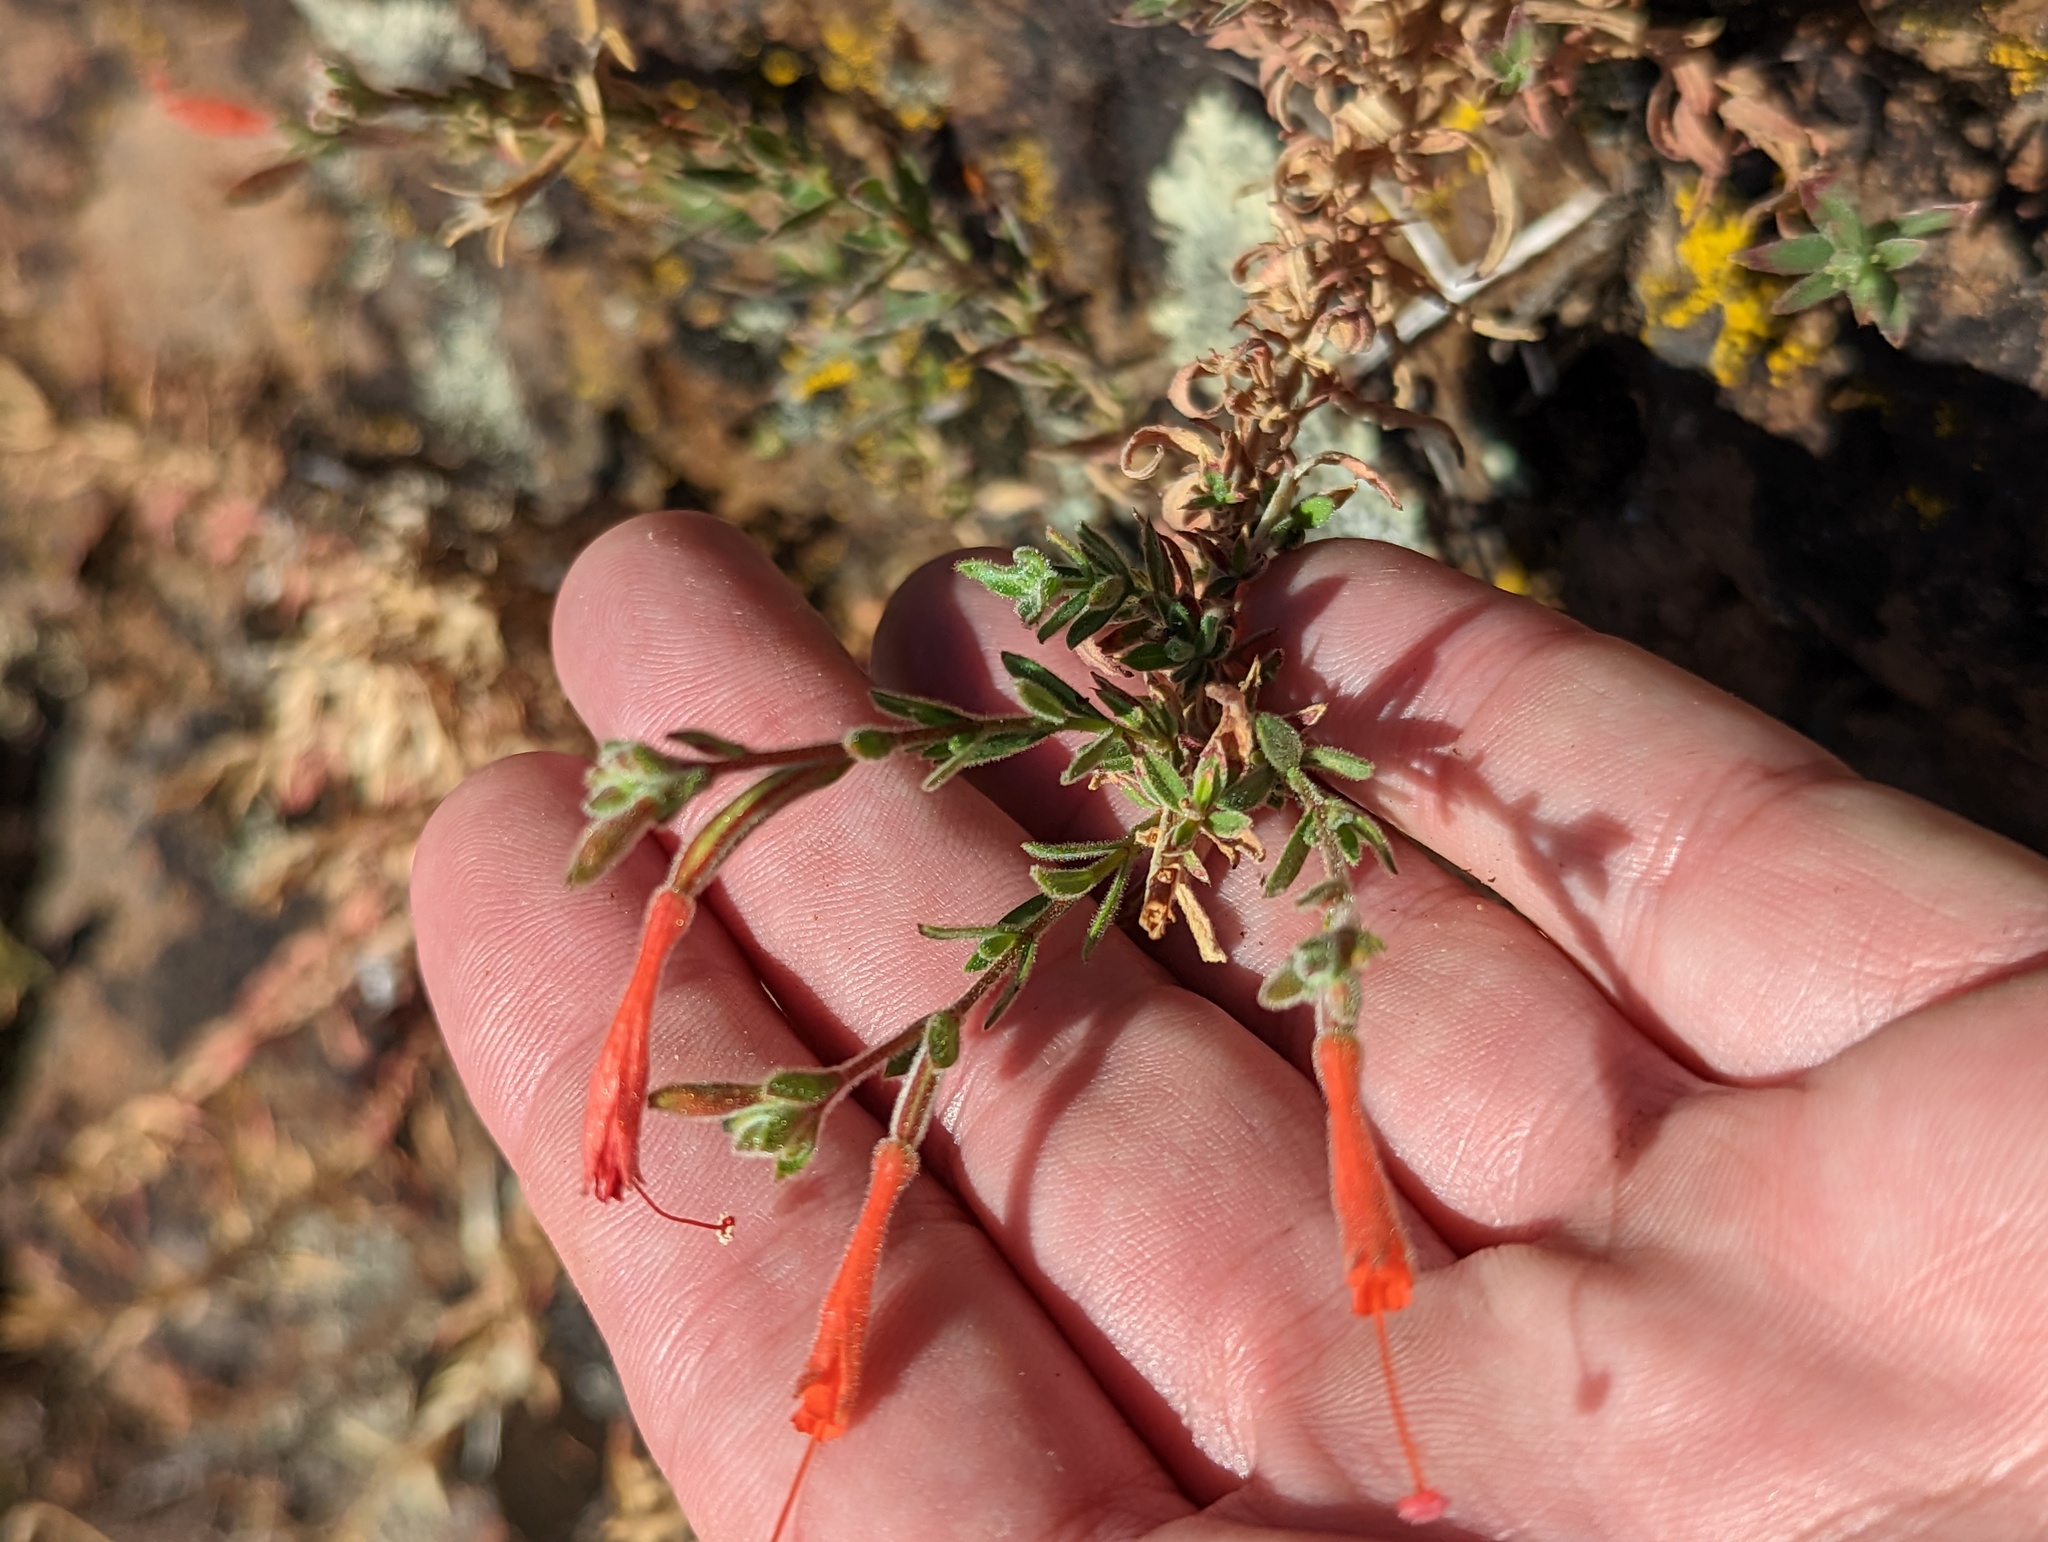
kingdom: Plantae
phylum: Tracheophyta
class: Magnoliopsida
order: Myrtales
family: Onagraceae
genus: Epilobium
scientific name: Epilobium canum
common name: California-fuchsia
